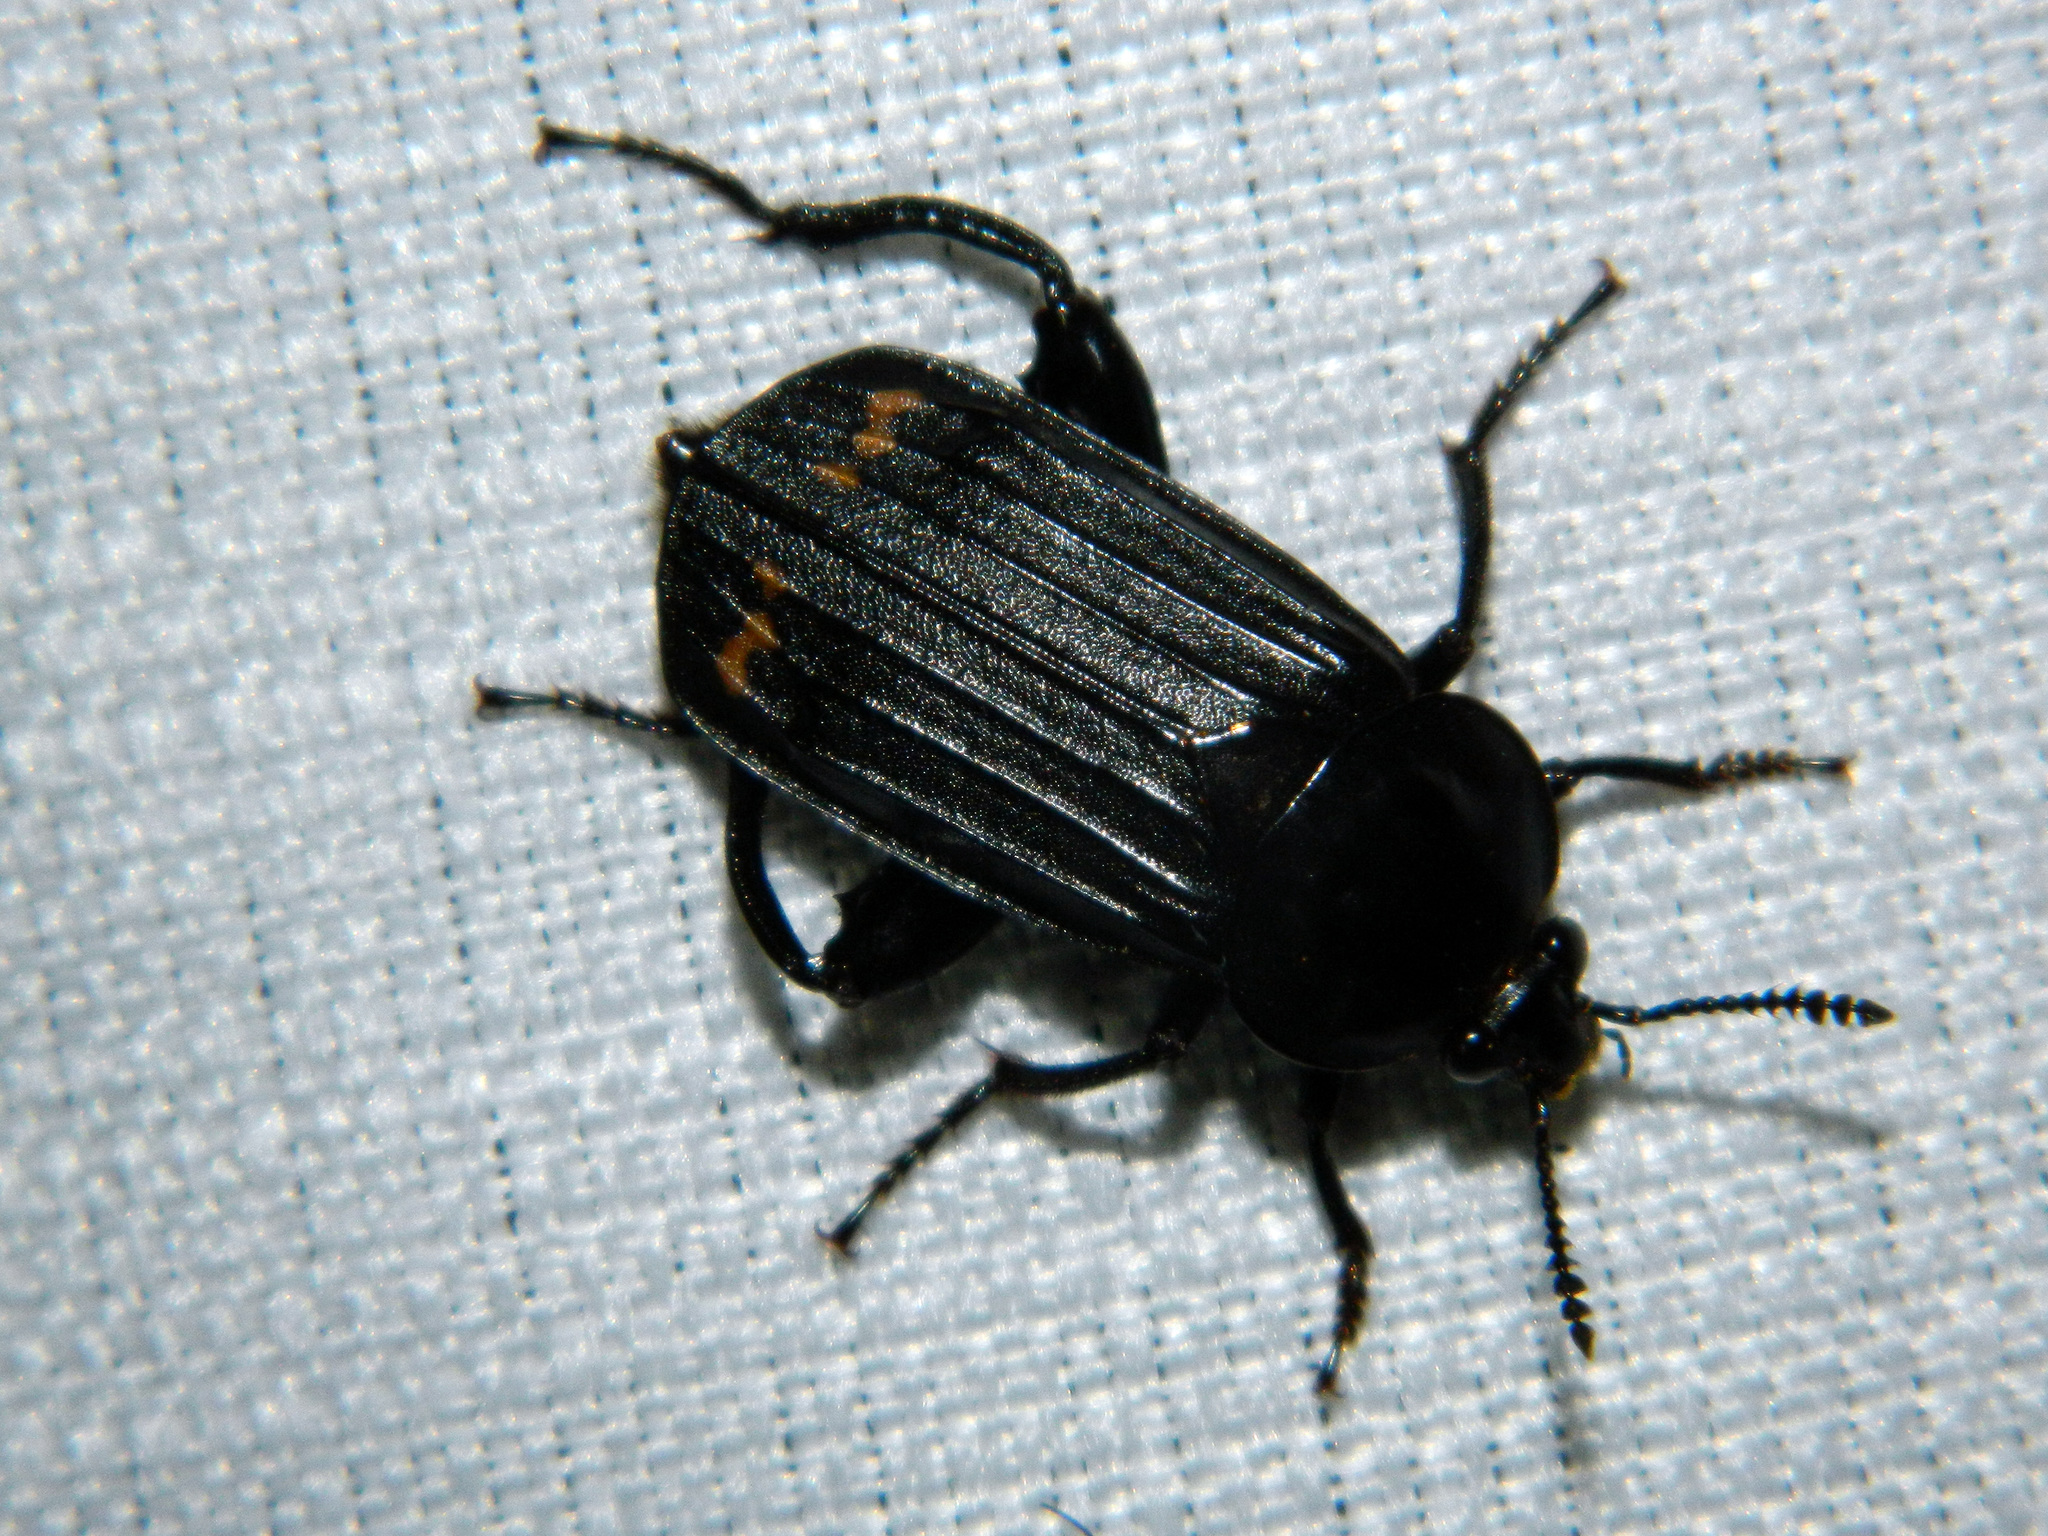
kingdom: Animalia
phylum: Arthropoda
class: Insecta
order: Coleoptera
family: Staphylinidae
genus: Necrodes
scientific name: Necrodes surinamensis
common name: Red-lined carrion beetle
